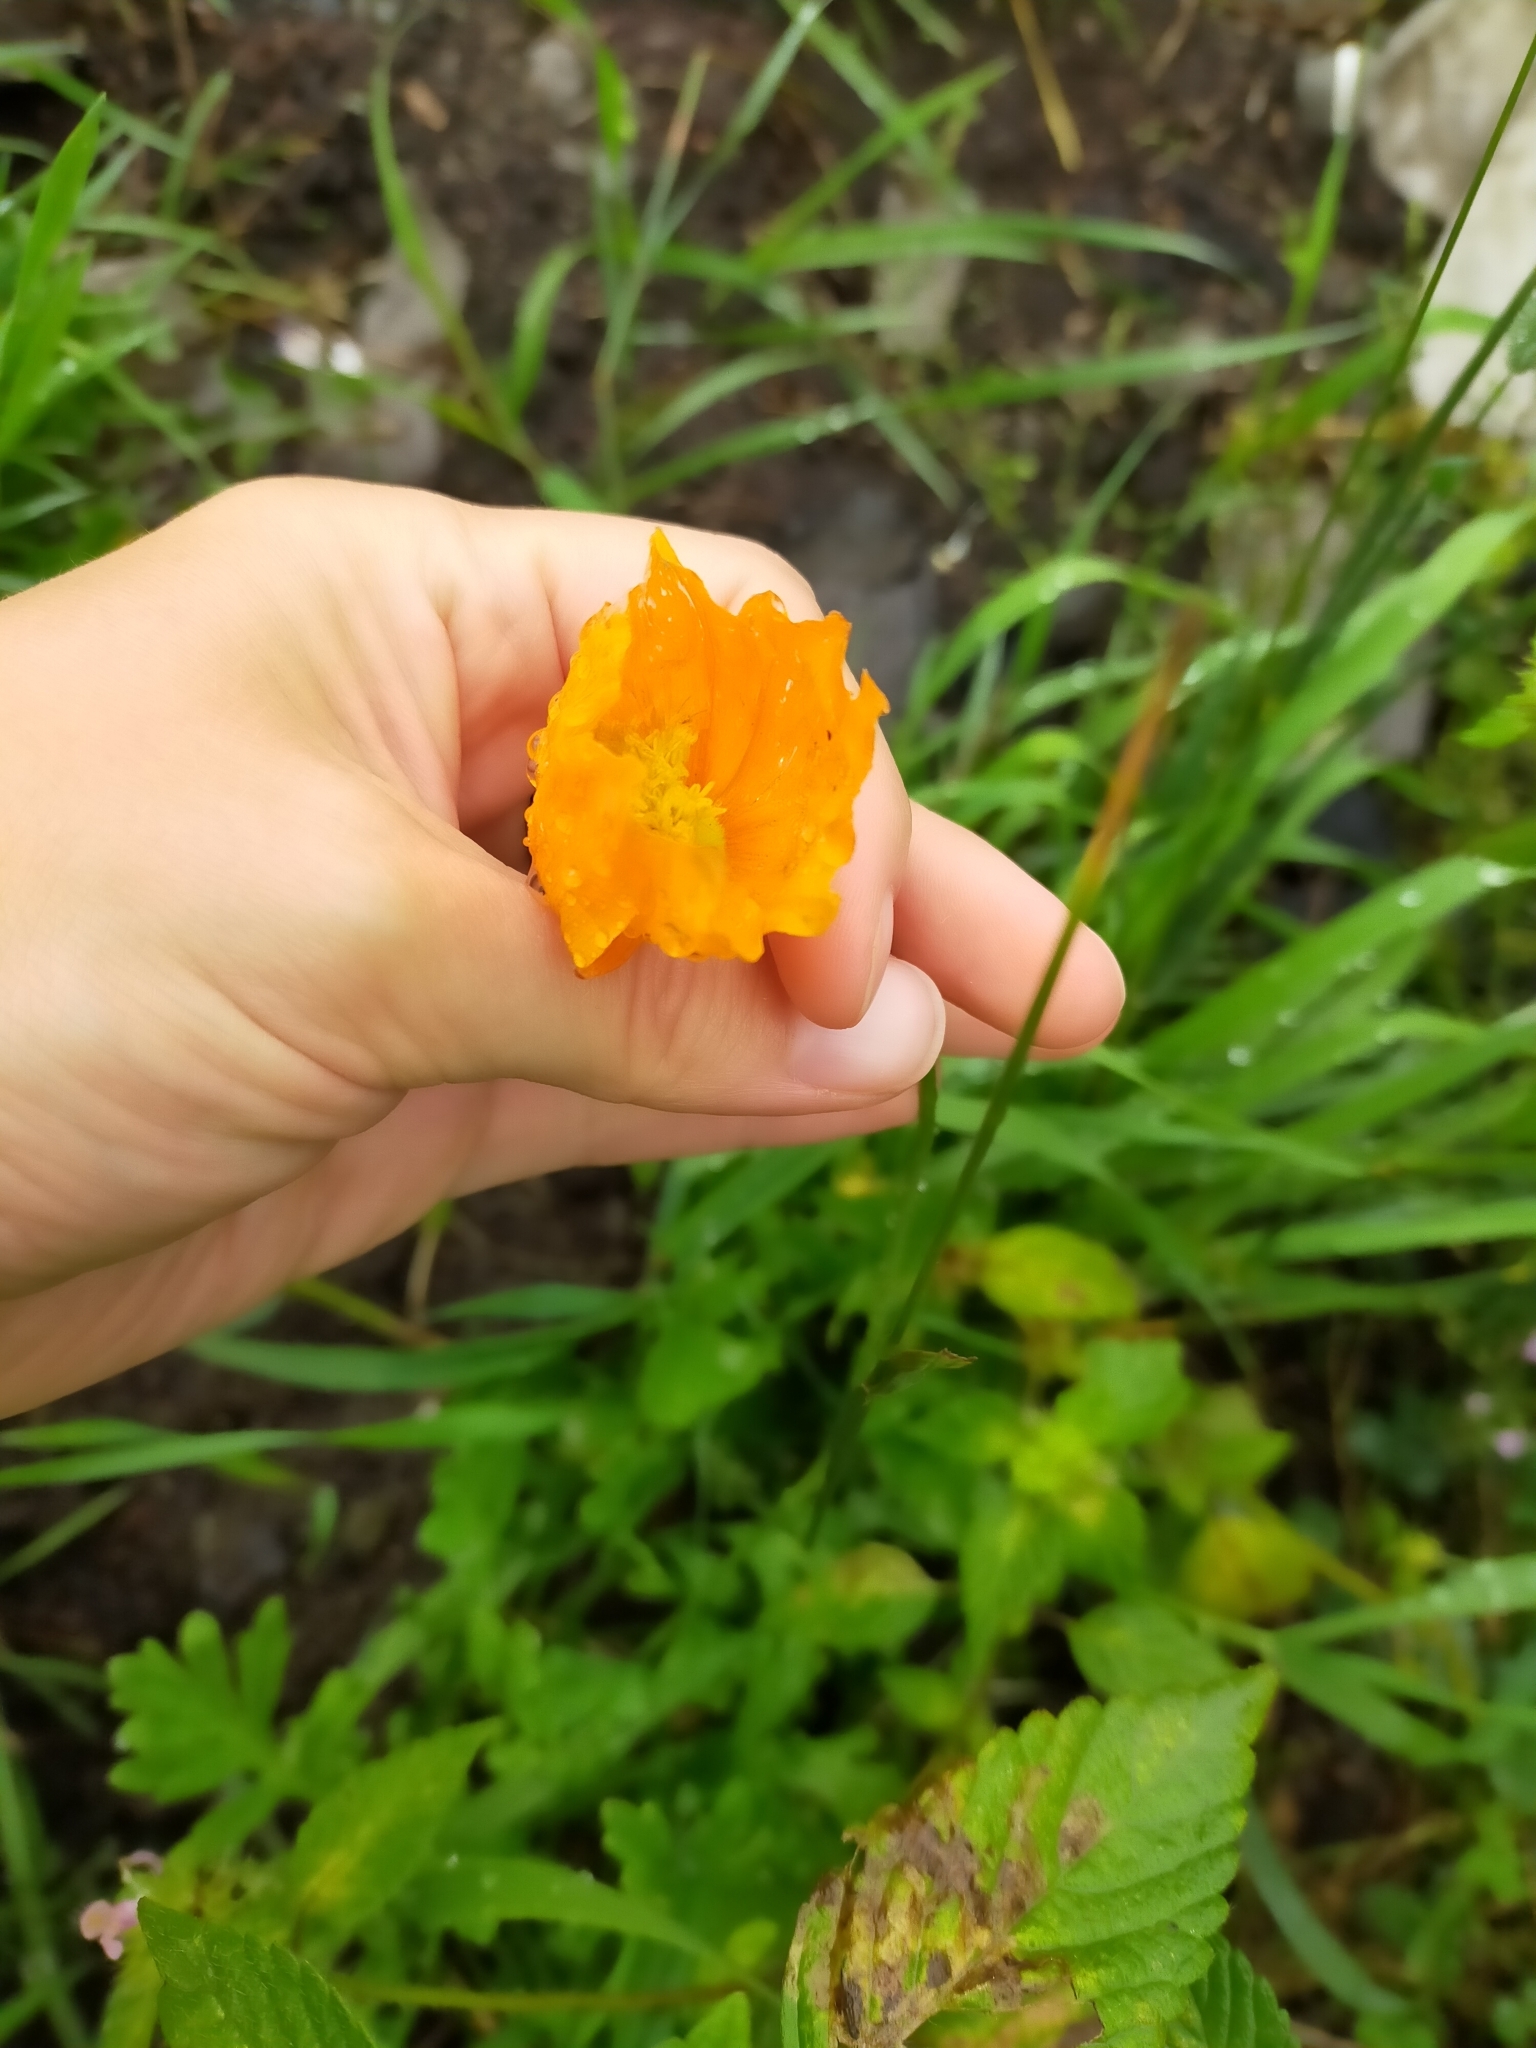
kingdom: Plantae
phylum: Tracheophyta
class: Magnoliopsida
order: Ranunculales
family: Papaveraceae
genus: Oreomecon
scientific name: Oreomecon
